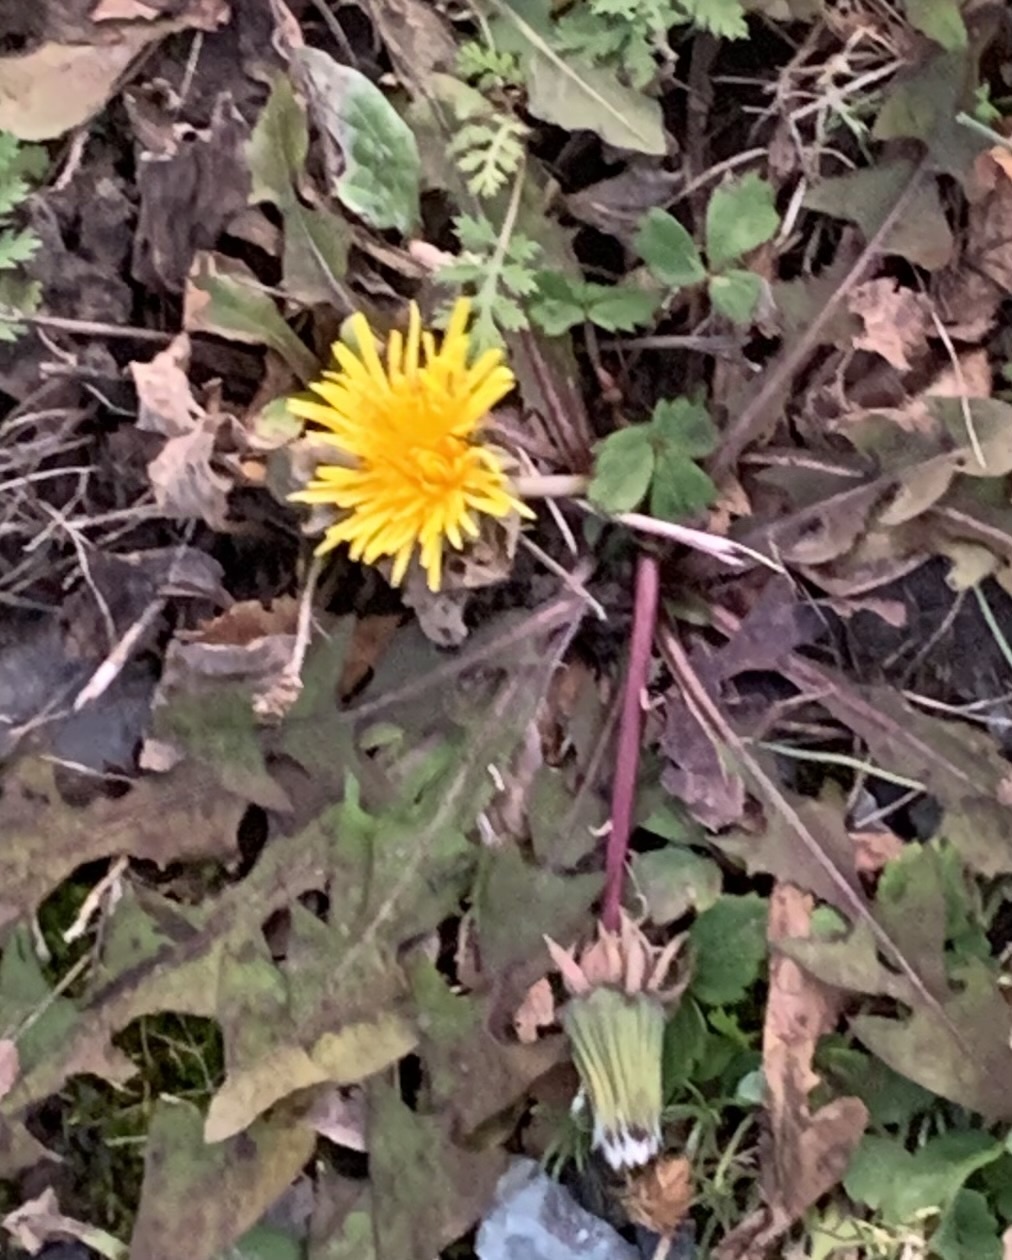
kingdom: Plantae
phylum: Tracheophyta
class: Magnoliopsida
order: Asterales
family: Asteraceae
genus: Taraxacum
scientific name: Taraxacum officinale
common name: Common dandelion
